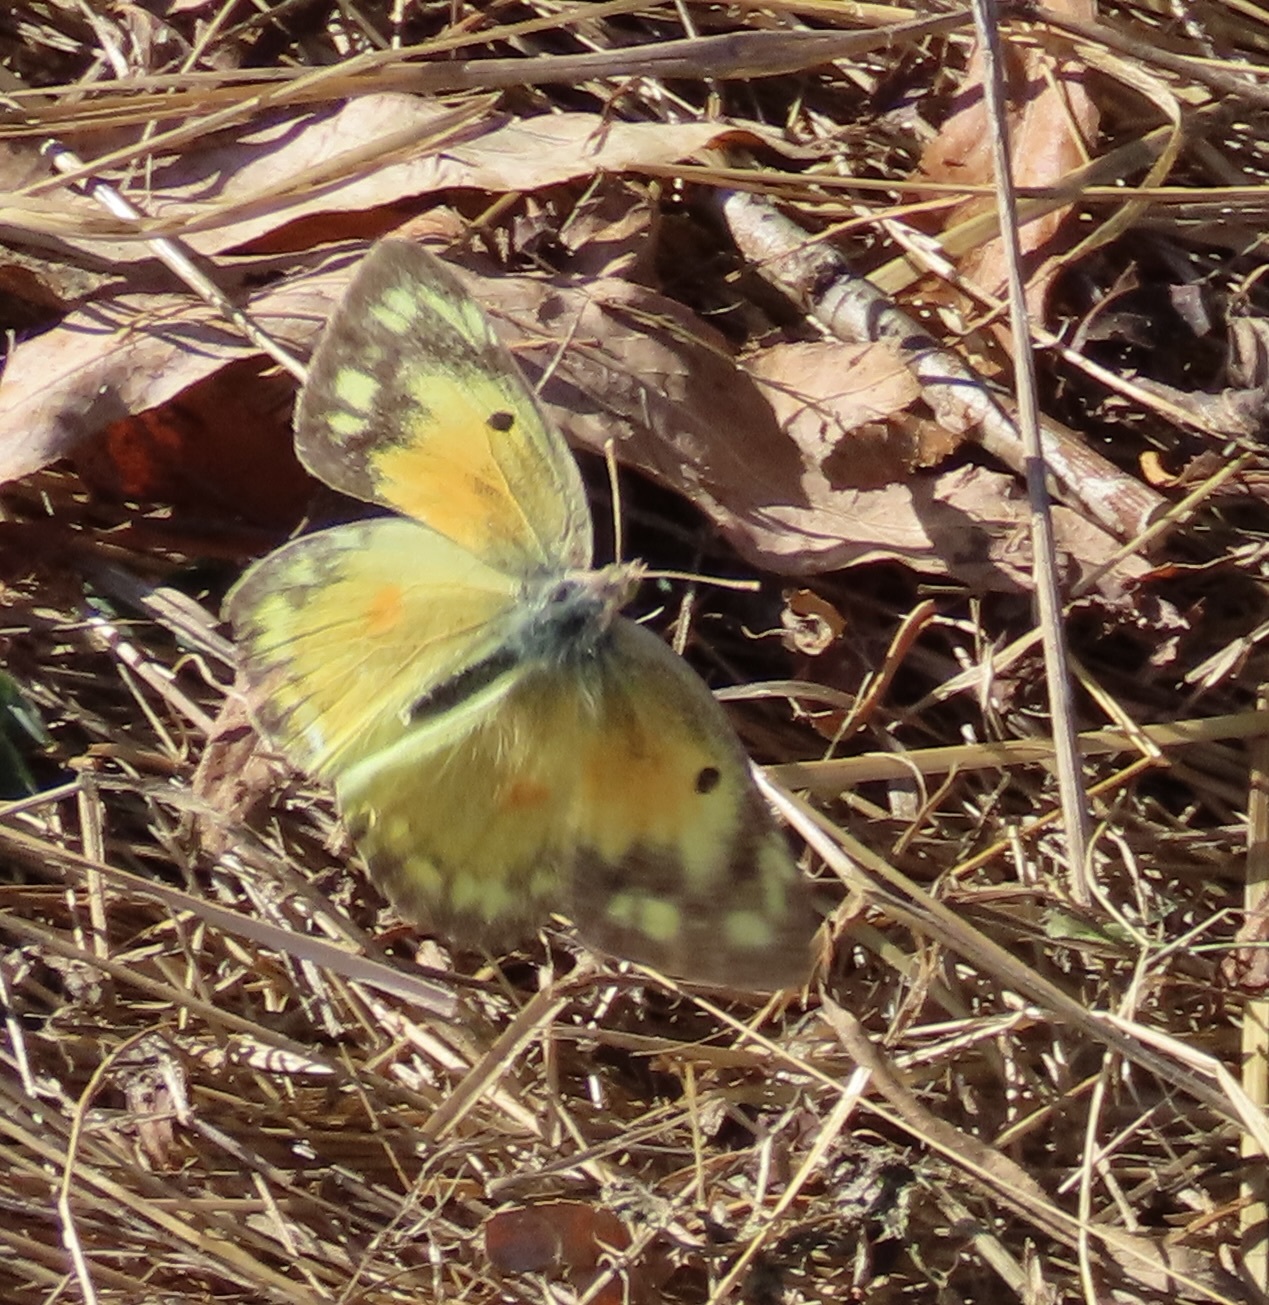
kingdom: Animalia
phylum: Arthropoda
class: Insecta
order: Lepidoptera
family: Pieridae
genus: Colias
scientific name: Colias eurytheme
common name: Alfalfa butterfly
